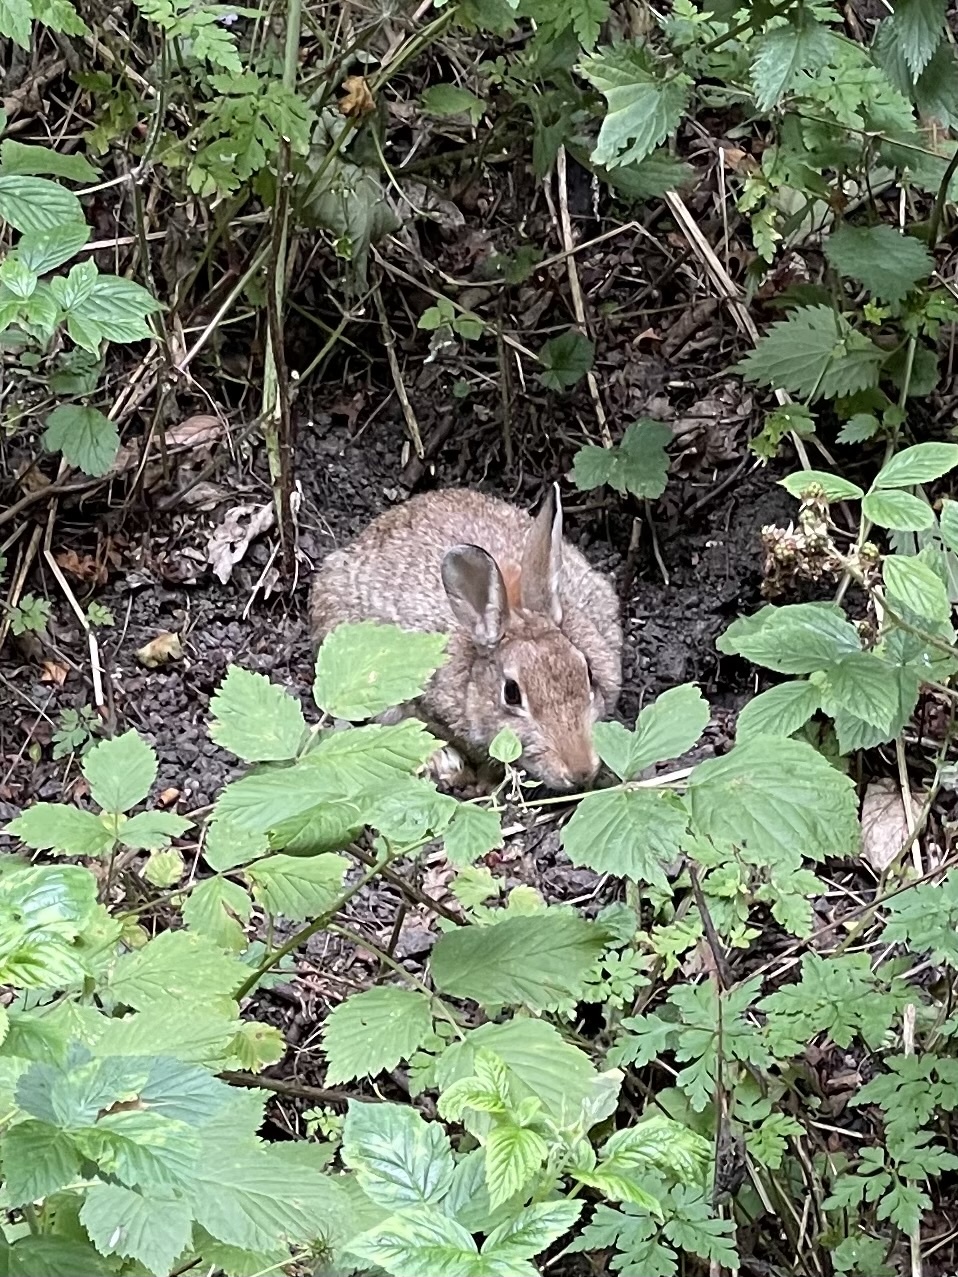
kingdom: Animalia
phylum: Chordata
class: Mammalia
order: Lagomorpha
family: Leporidae
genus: Oryctolagus
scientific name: Oryctolagus cuniculus
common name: European rabbit
